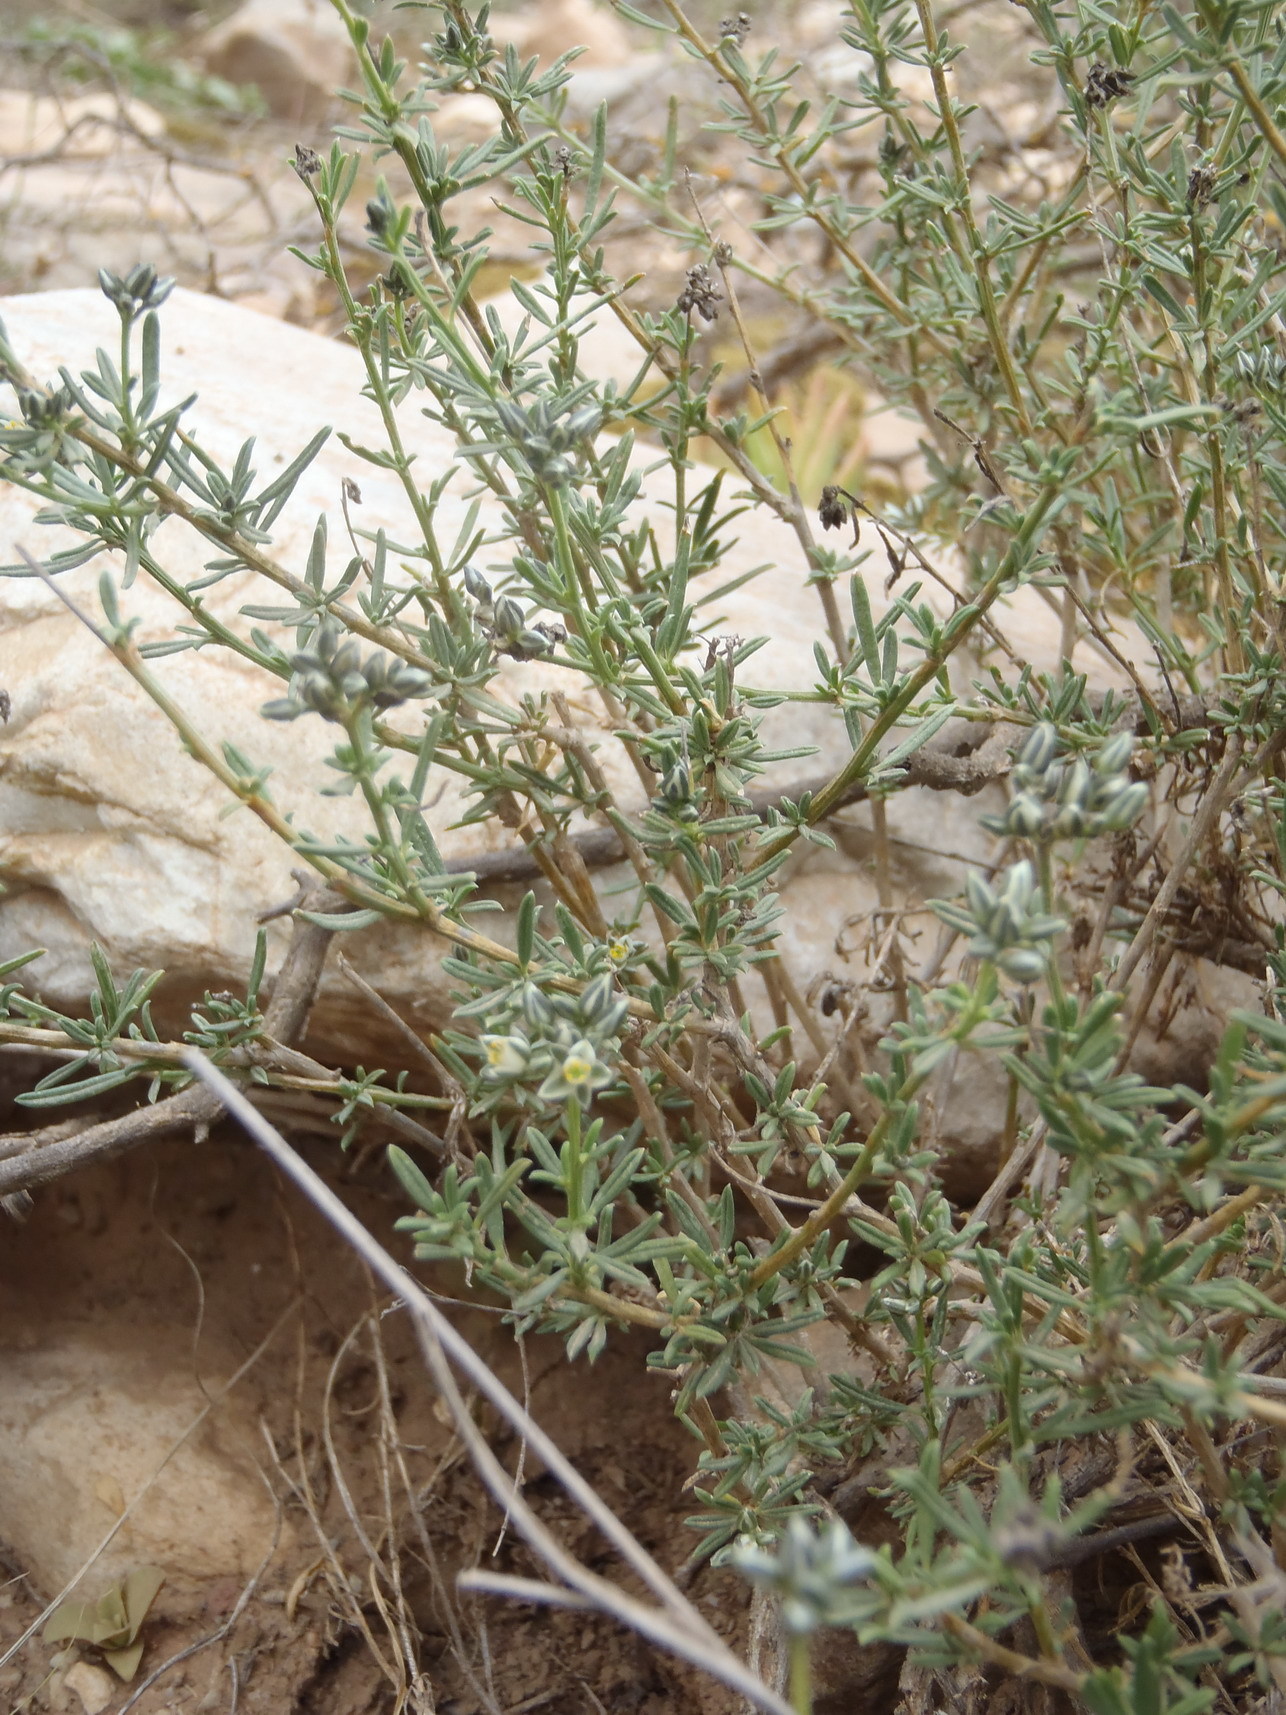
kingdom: Plantae
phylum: Tracheophyta
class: Magnoliopsida
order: Caryophyllales
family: Limeaceae
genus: Limeum
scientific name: Limeum aethiopicum
